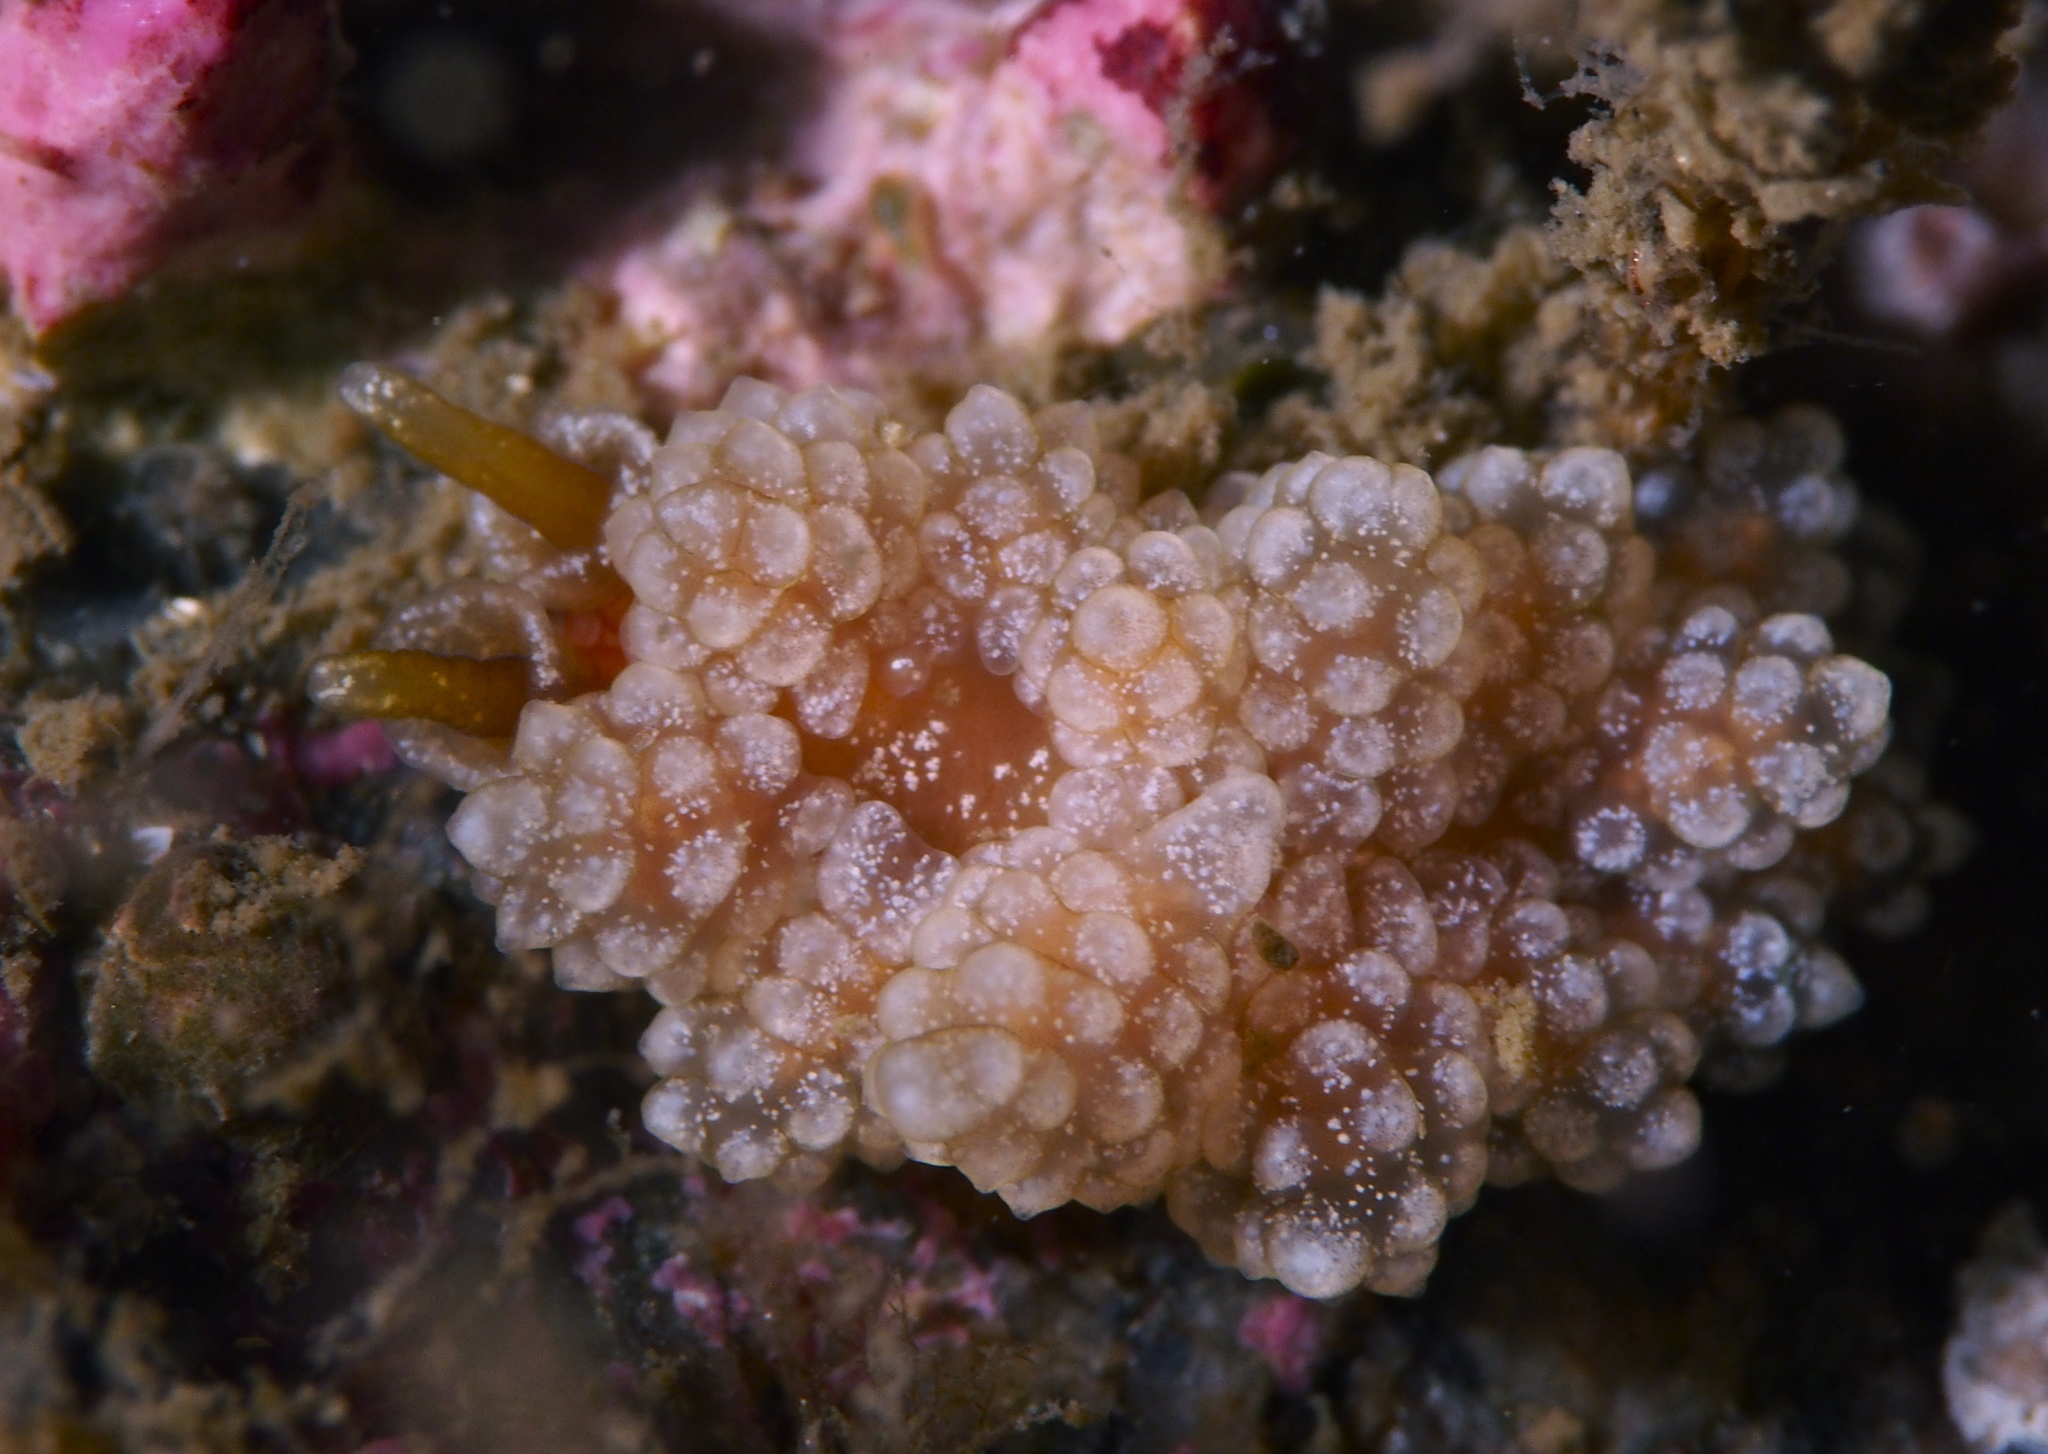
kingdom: Animalia
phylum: Mollusca
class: Gastropoda
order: Nudibranchia
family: Dotidae
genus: Doto
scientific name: Doto fragilis
